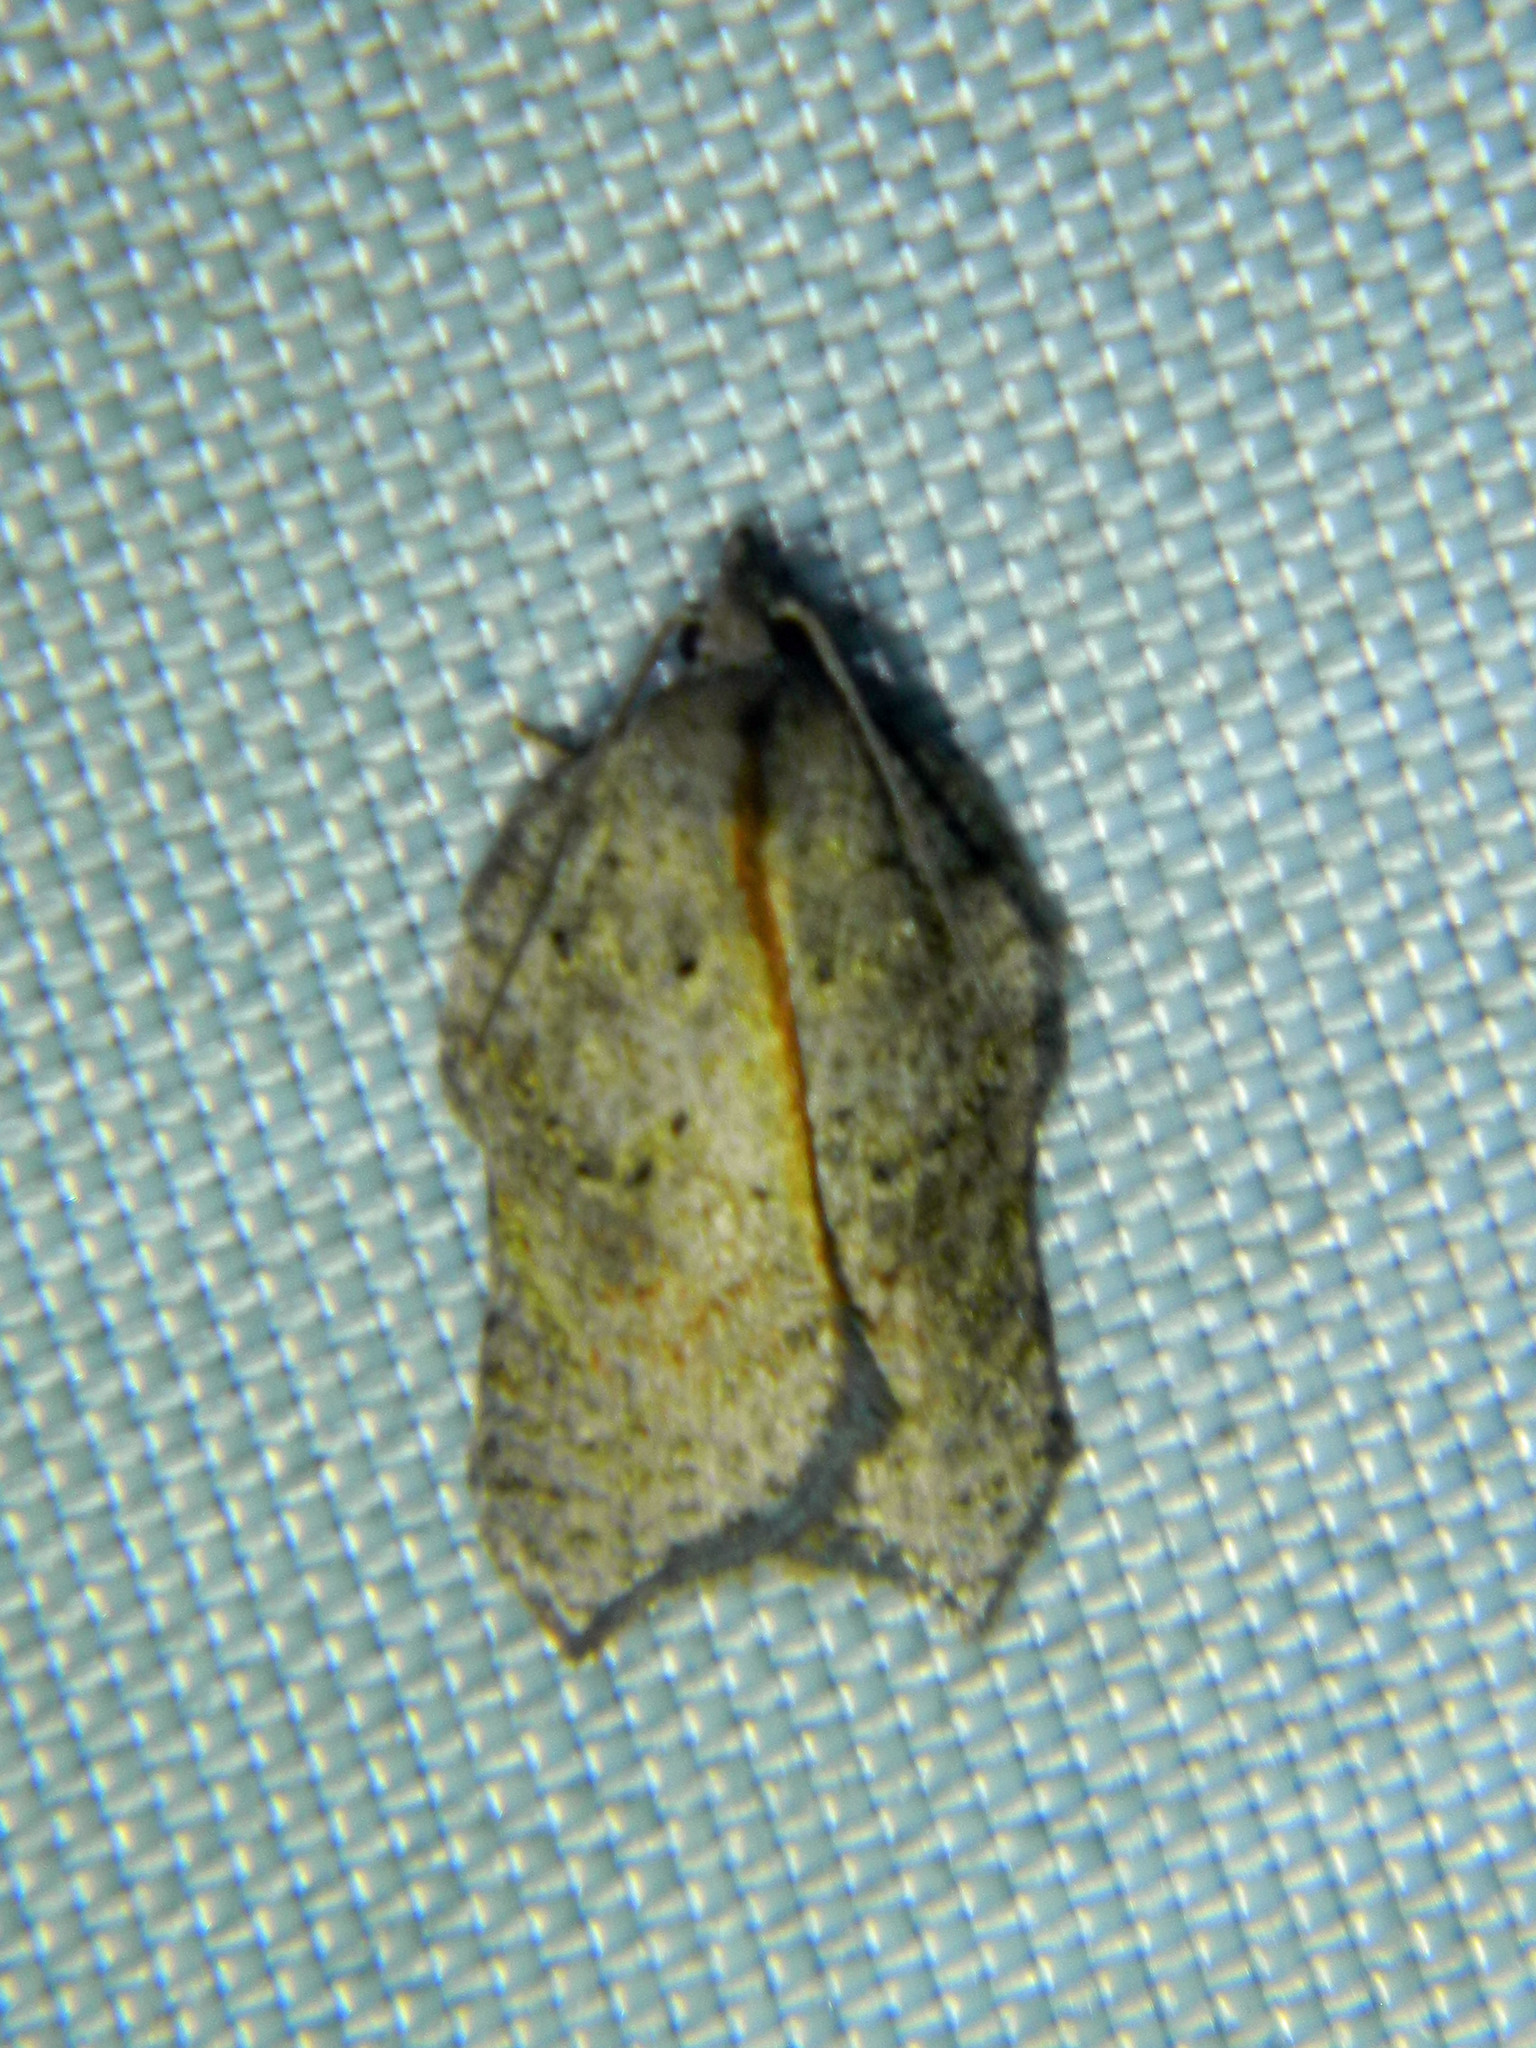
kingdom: Animalia
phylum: Arthropoda
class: Insecta
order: Lepidoptera
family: Tortricidae
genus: Acleris
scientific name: Acleris effractana
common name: Hook-winged tortrix moth
